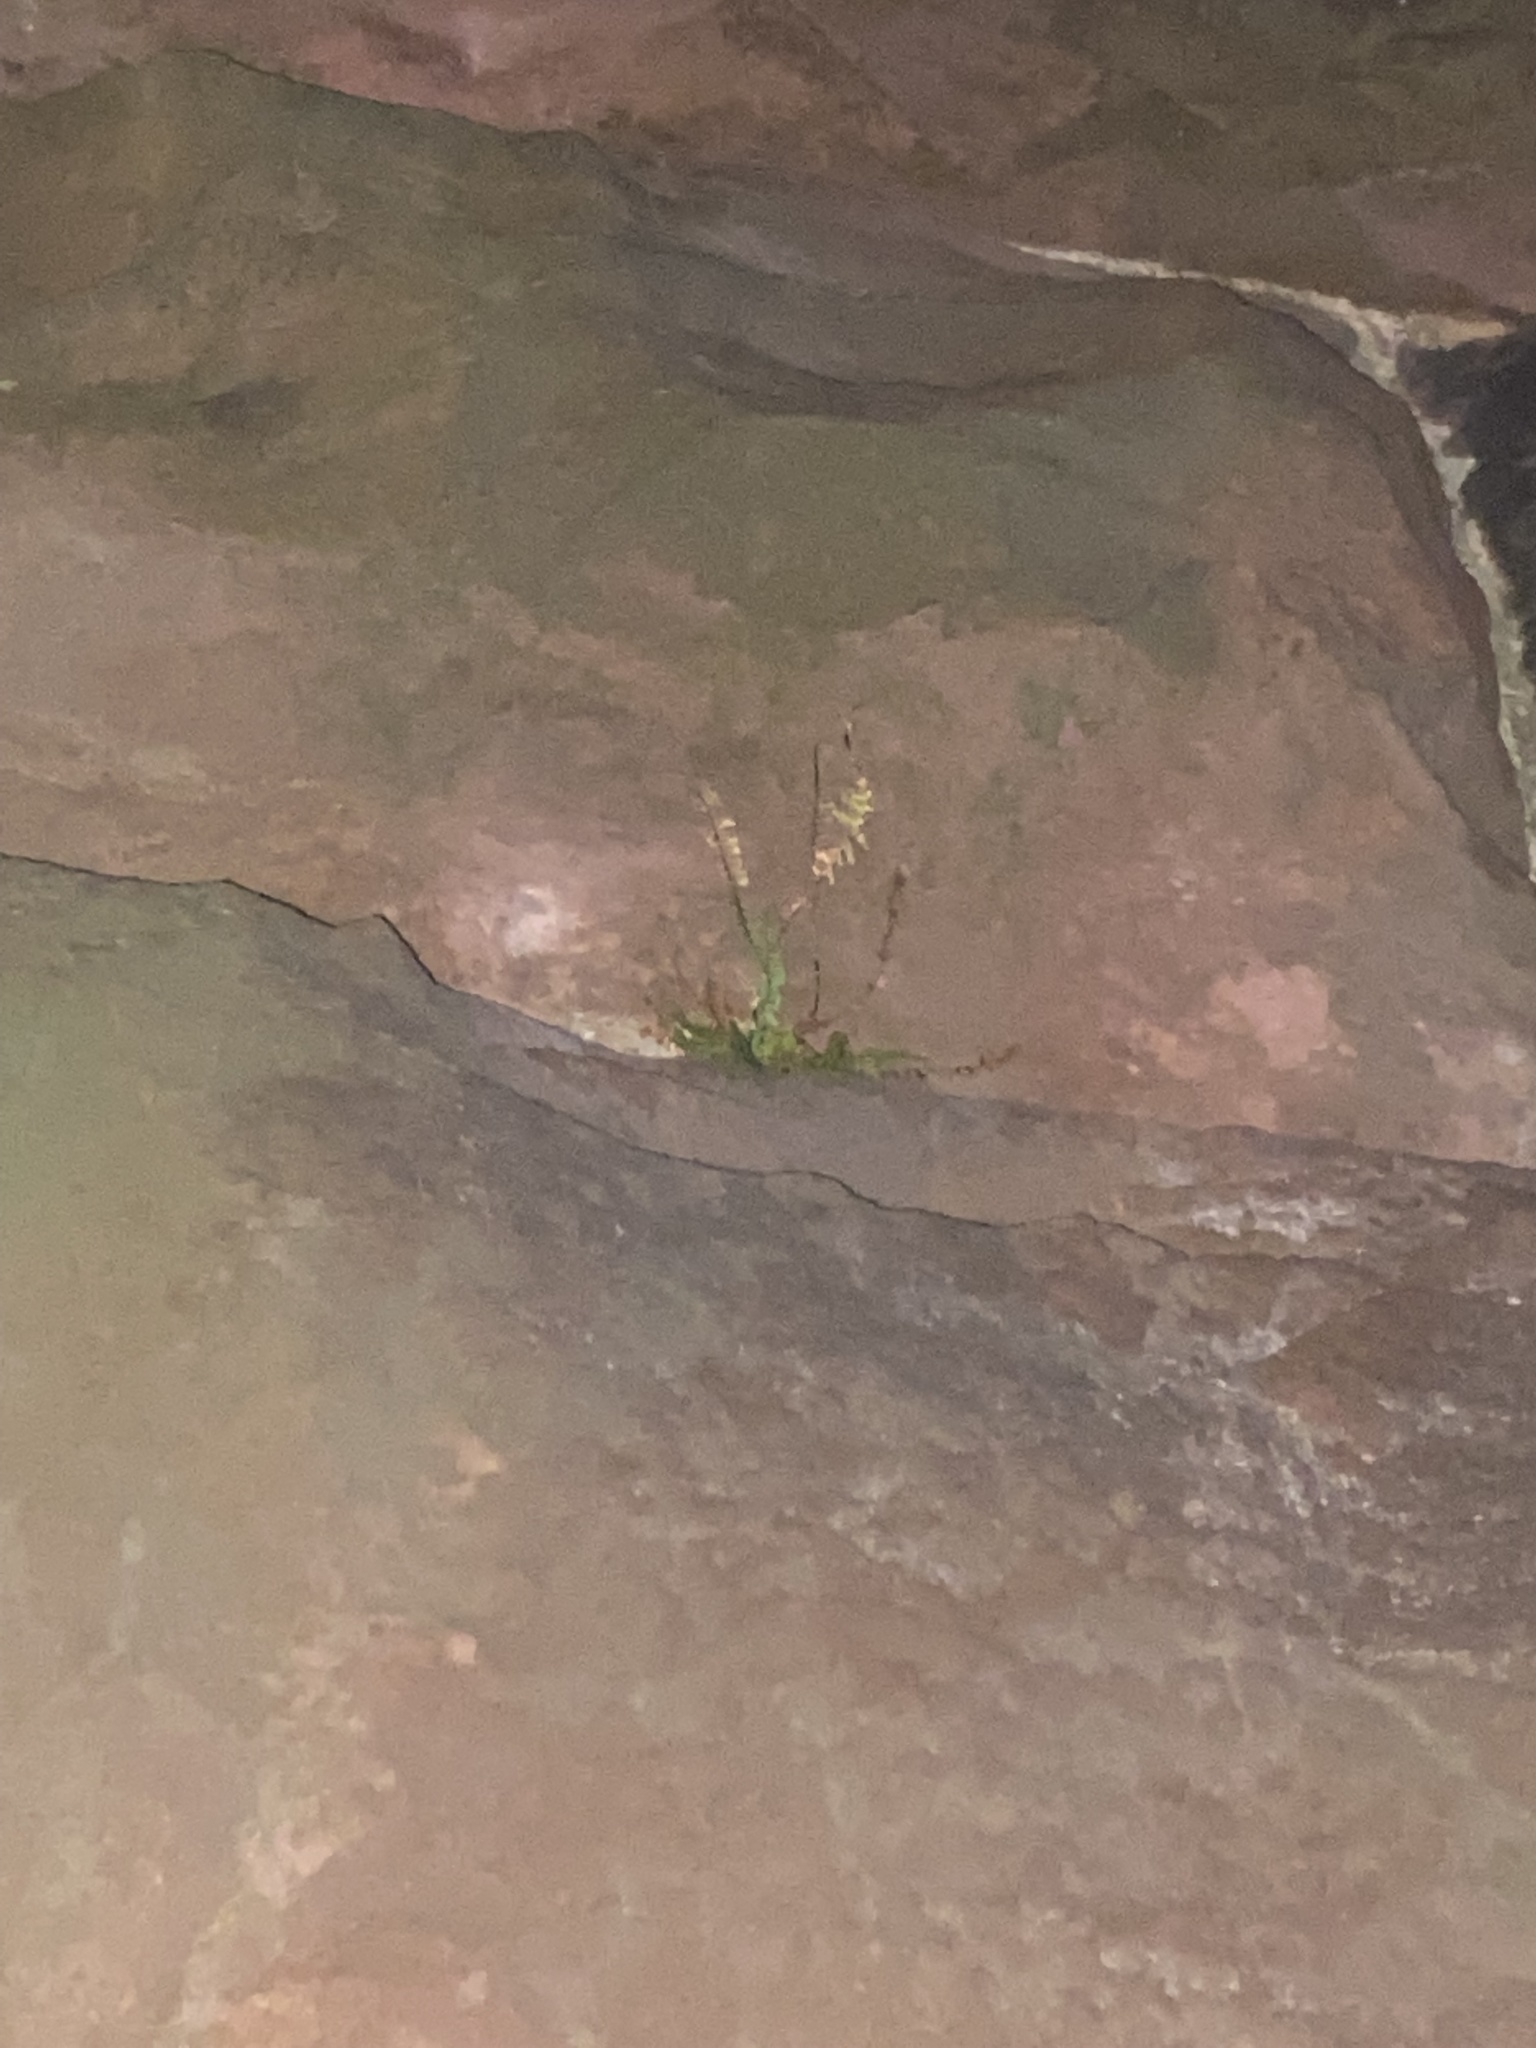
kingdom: Plantae
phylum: Tracheophyta
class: Polypodiopsida
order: Polypodiales
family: Aspleniaceae
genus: Asplenium
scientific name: Asplenium platyneuron
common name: Ebony spleenwort
